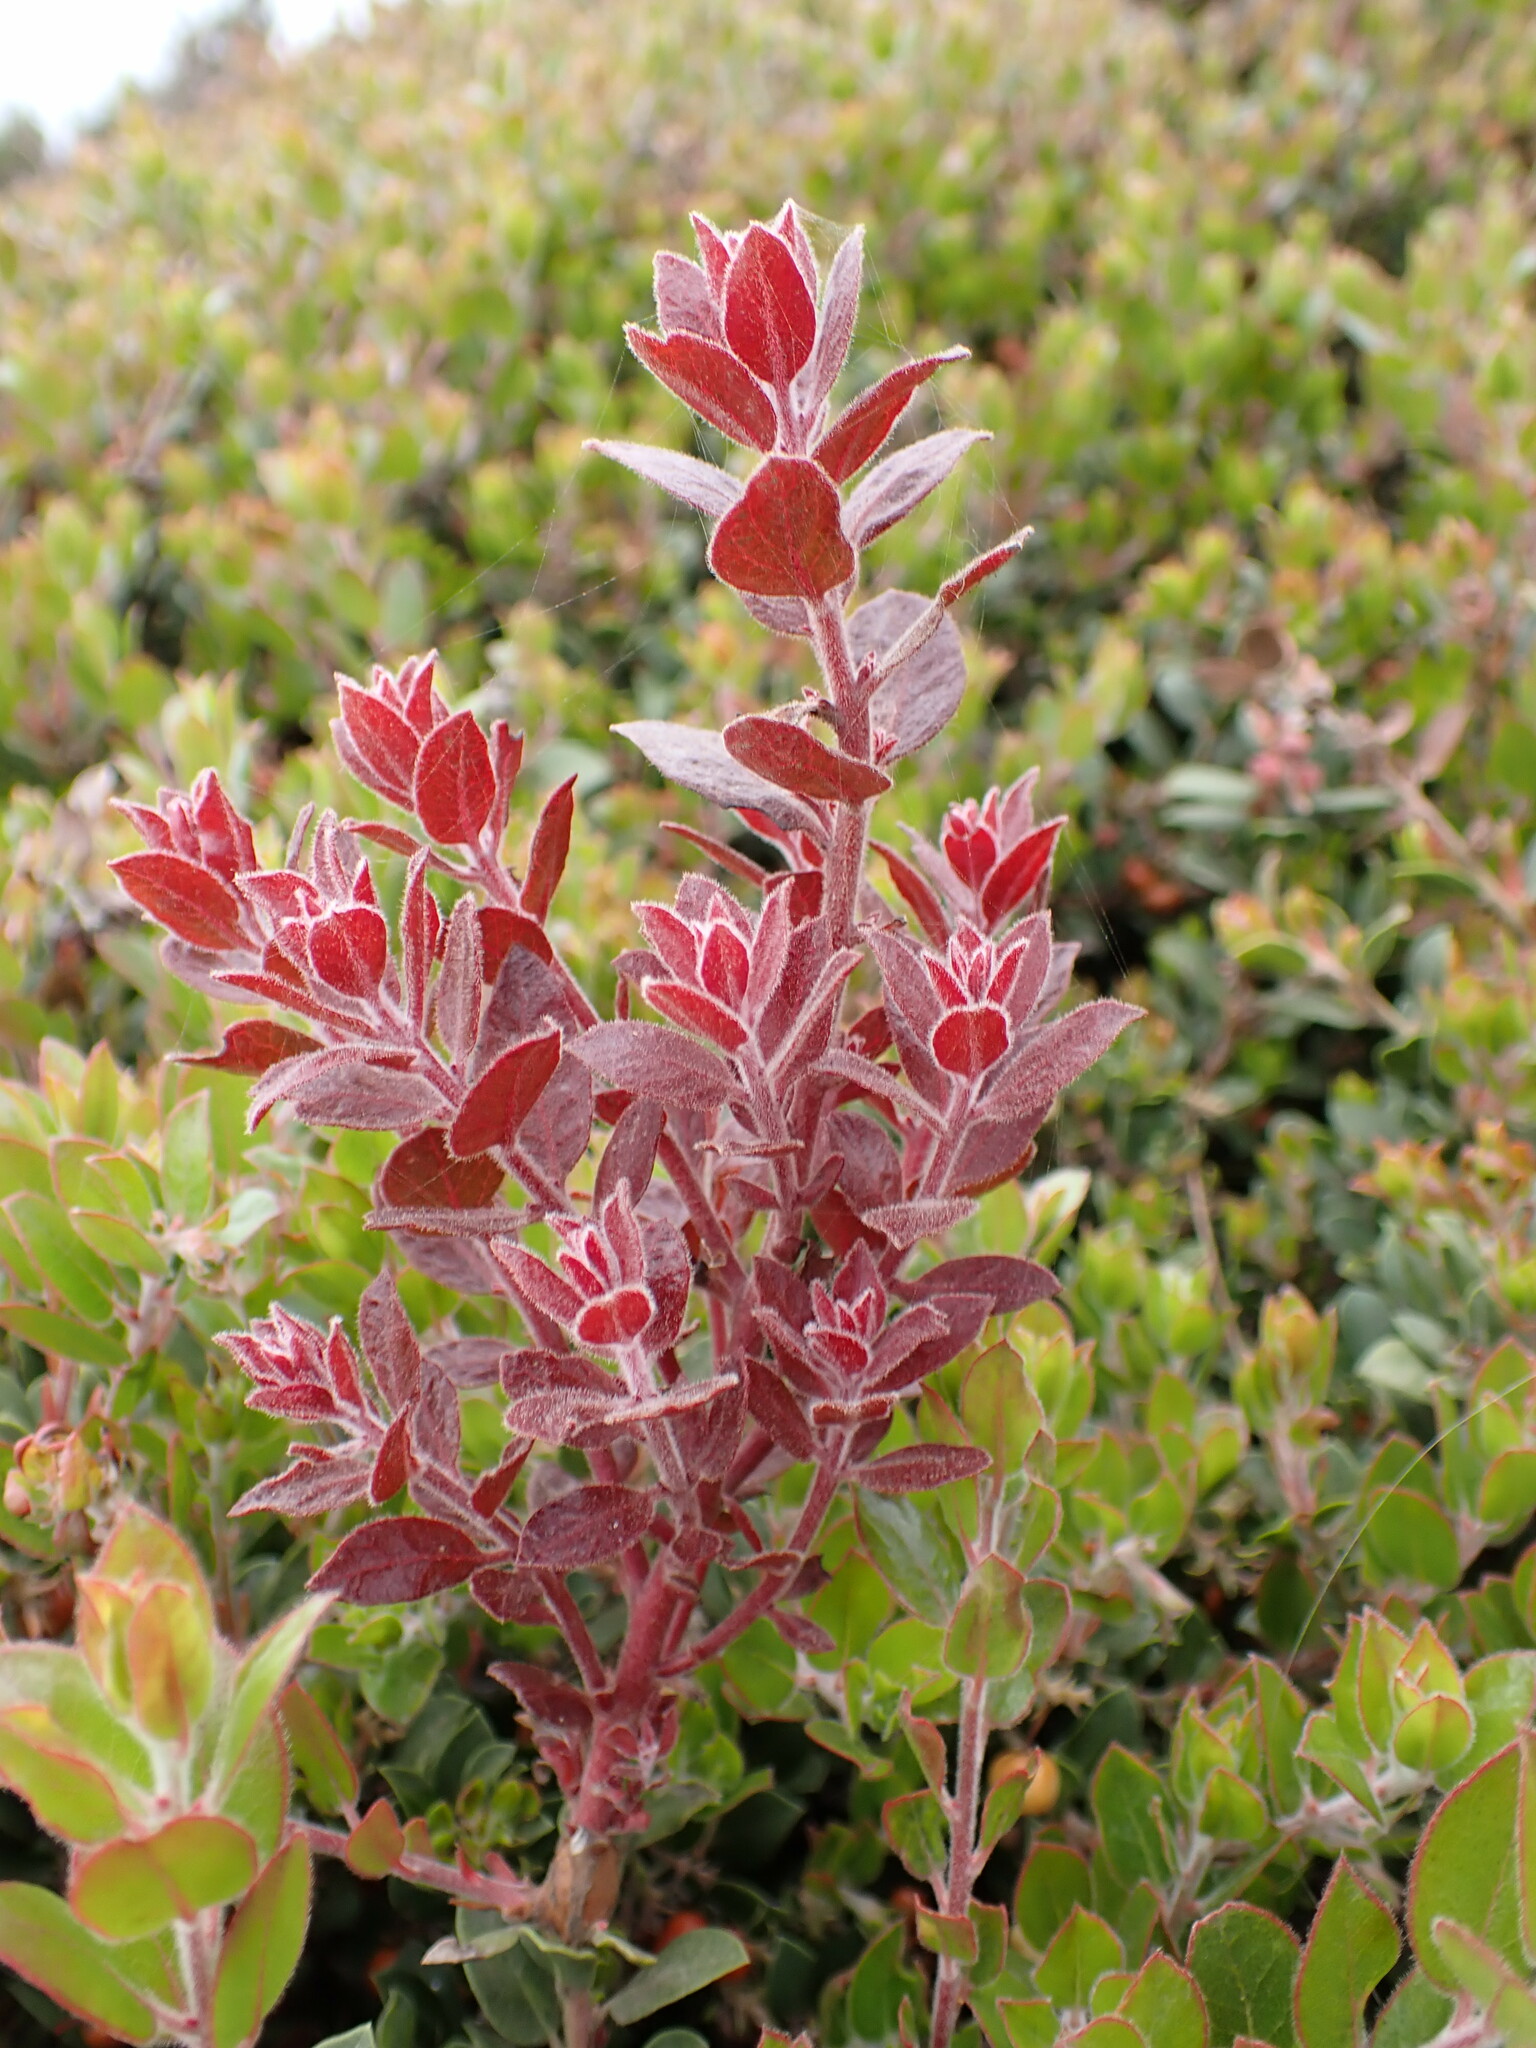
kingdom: Fungi
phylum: Basidiomycota
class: Exobasidiomycetes
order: Exobasidiales
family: Exobasidiaceae
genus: Exobasidium
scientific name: Exobasidium arctostaphyli
